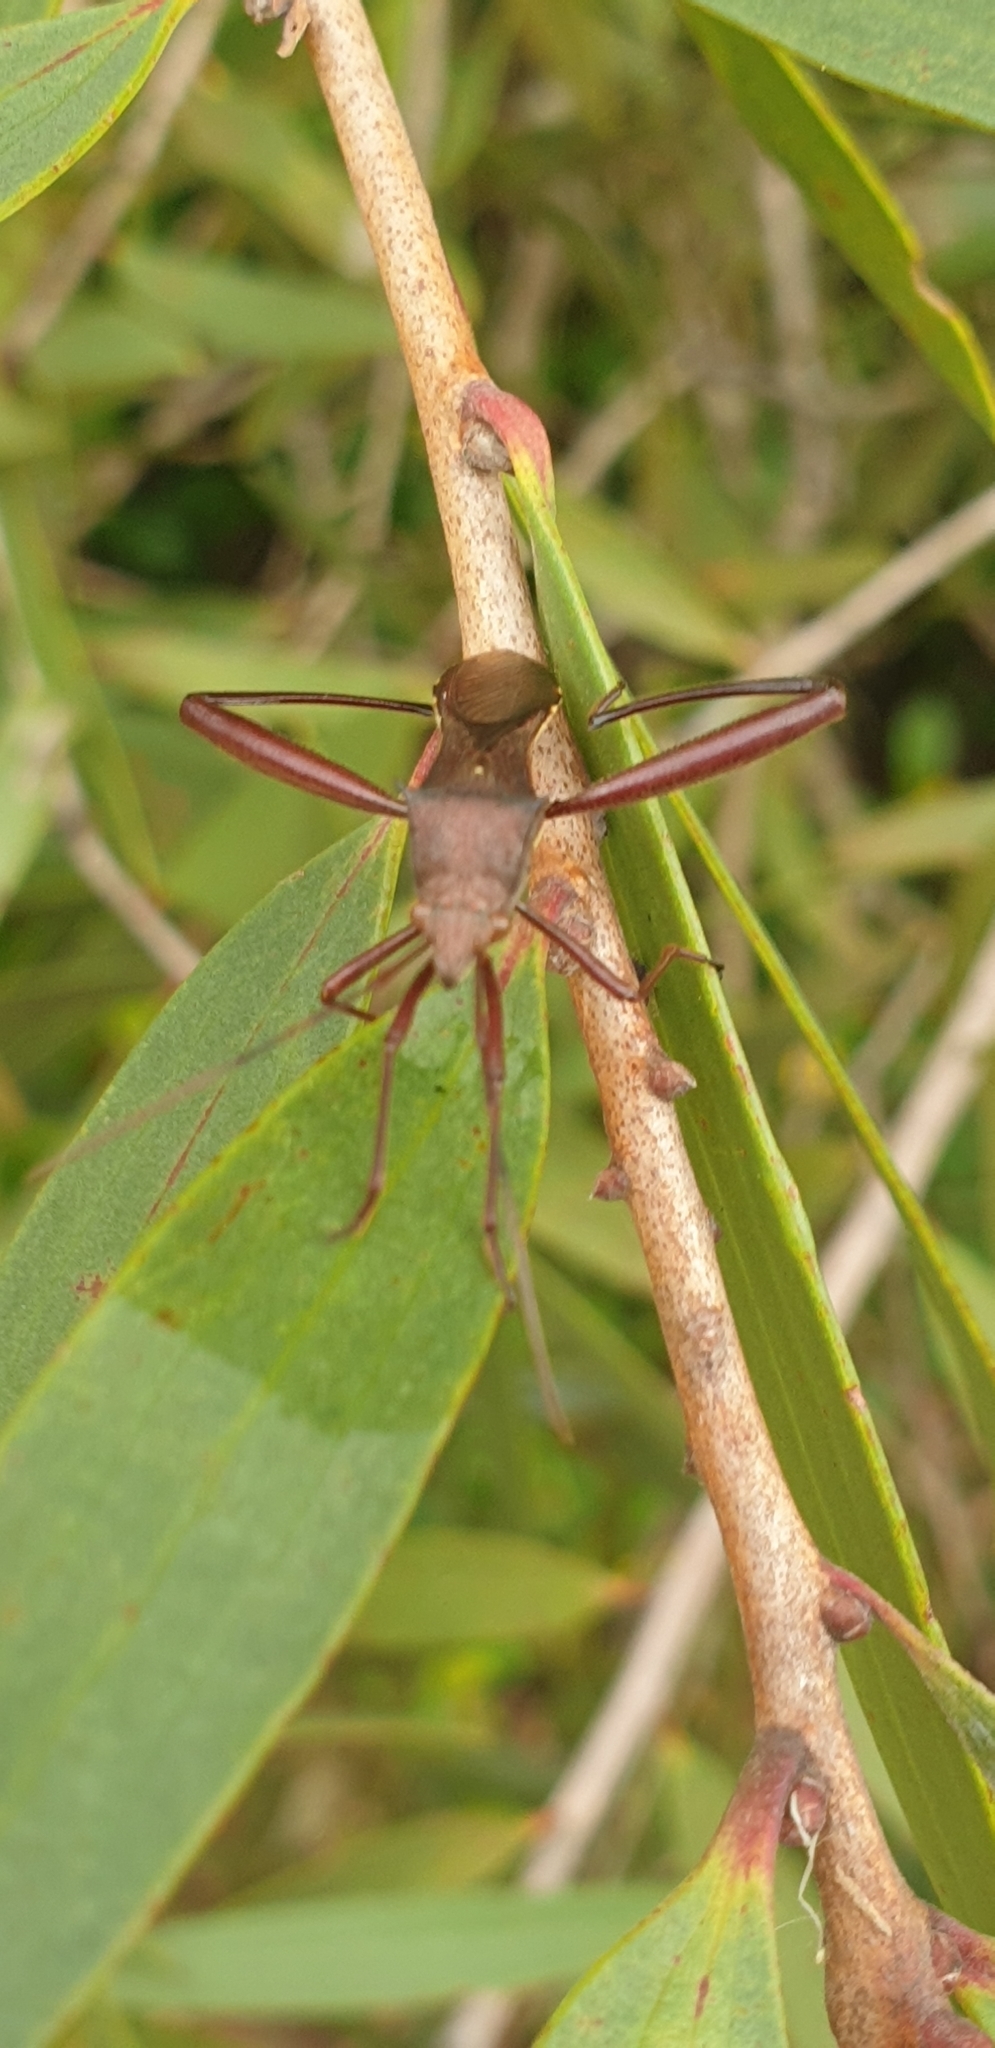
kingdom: Animalia
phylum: Arthropoda
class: Insecta
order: Hemiptera
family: Alydidae
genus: Riptortus
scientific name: Riptortus abdominalis
